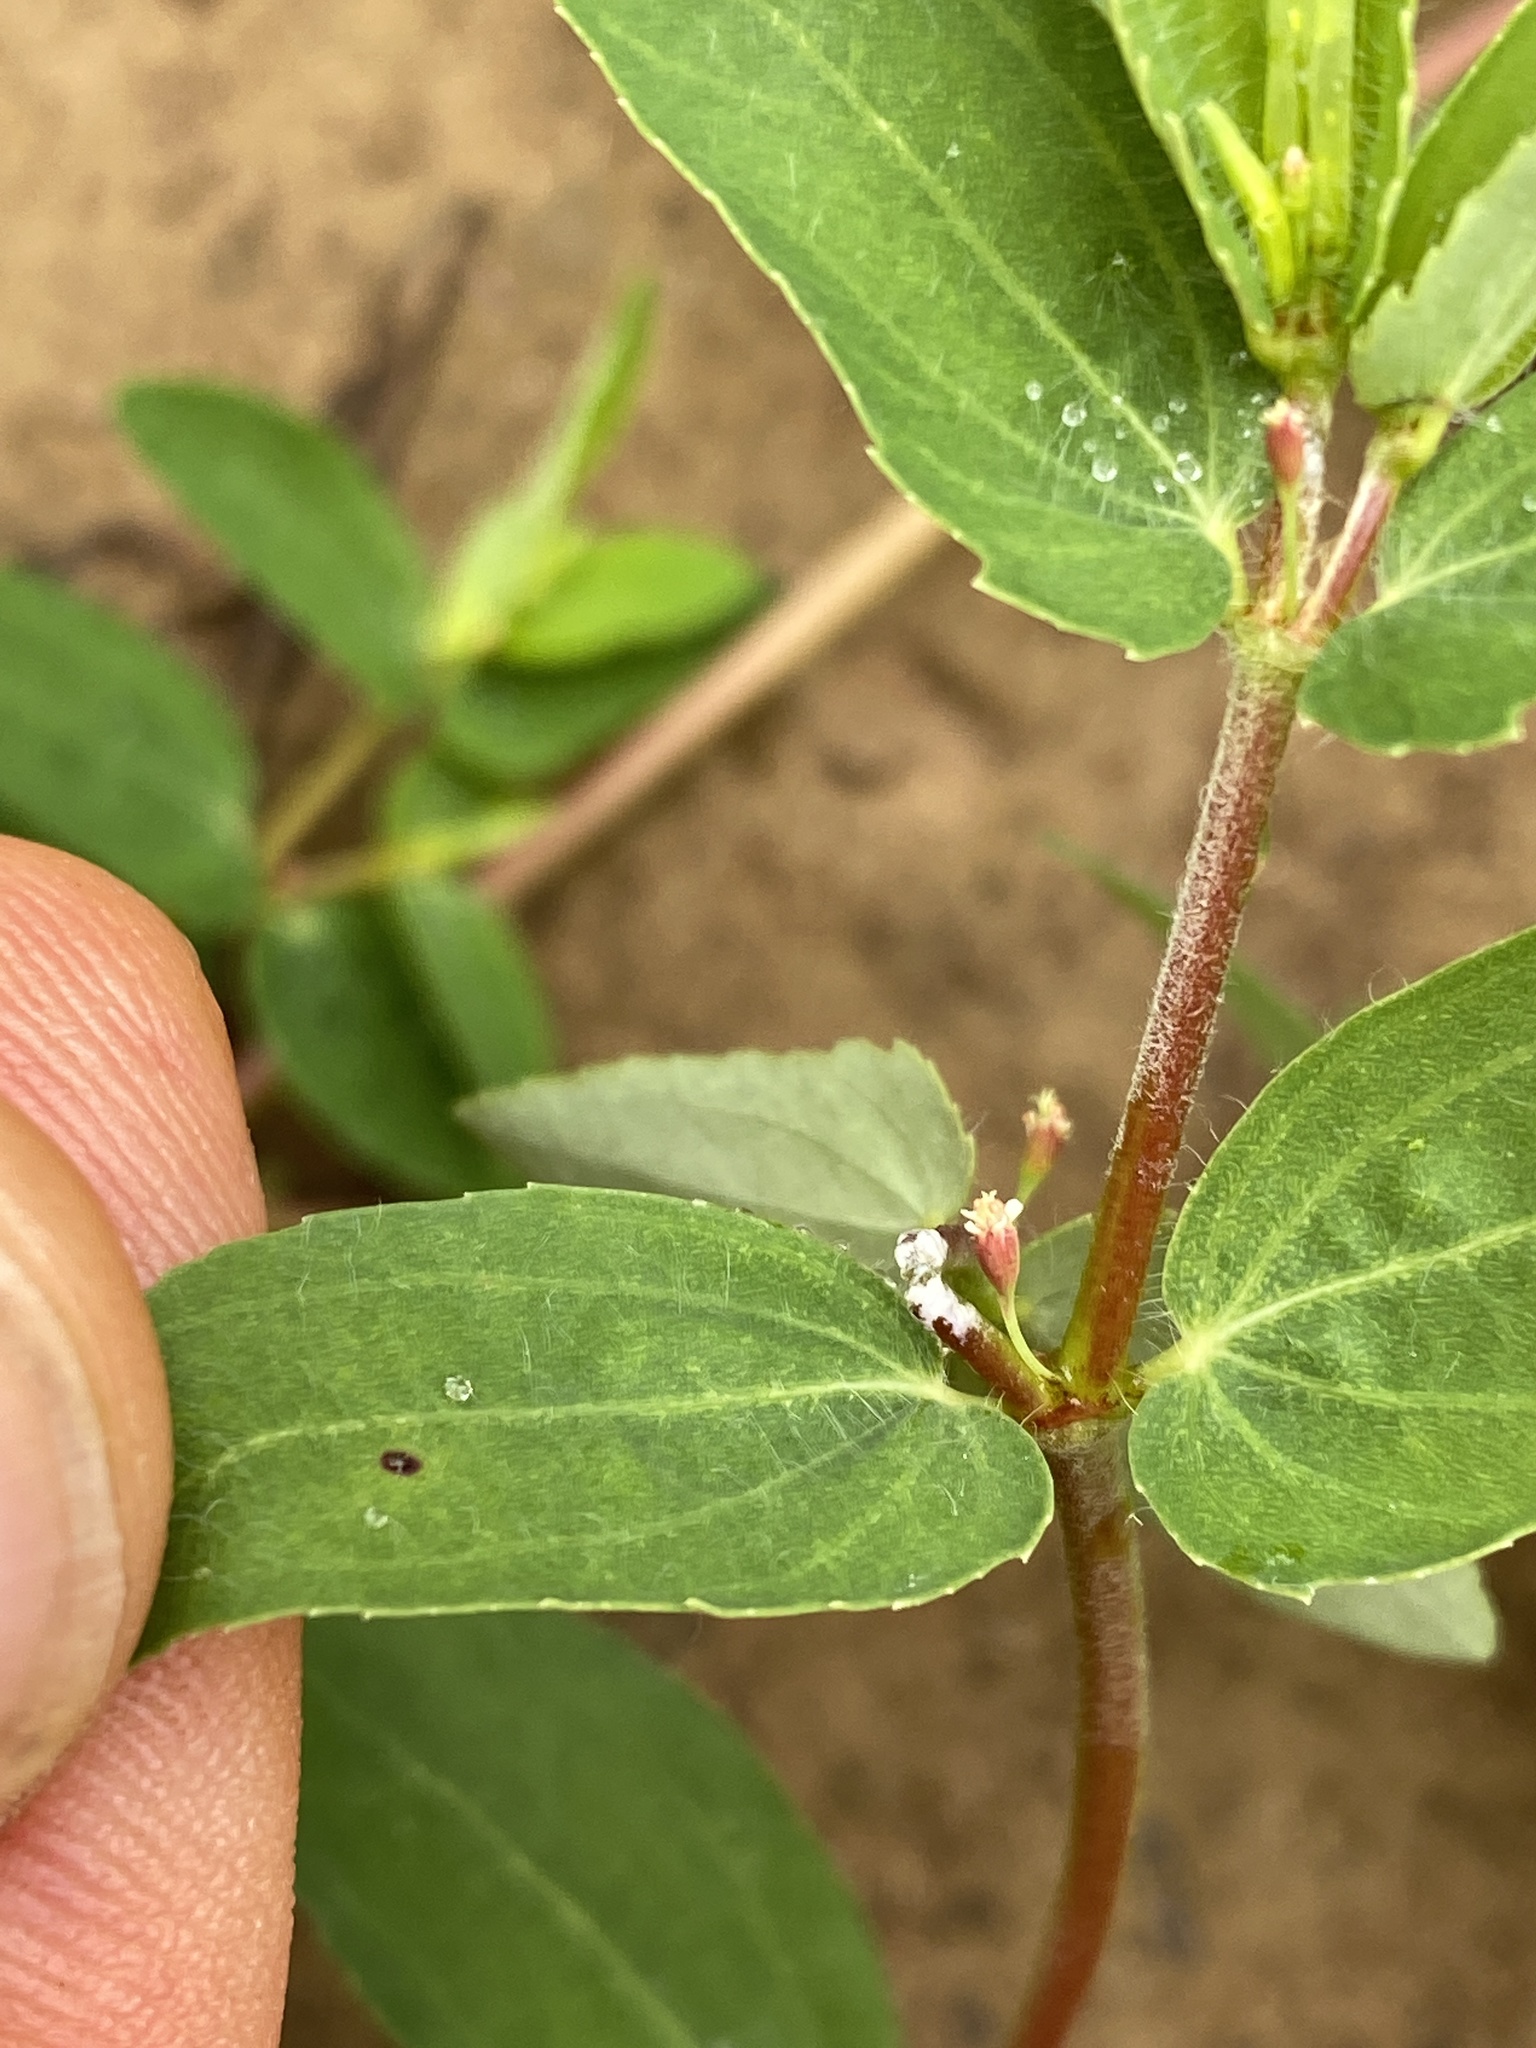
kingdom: Plantae
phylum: Tracheophyta
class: Magnoliopsida
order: Malpighiales
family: Euphorbiaceae
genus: Euphorbia
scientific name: Euphorbia nutans
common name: Eyebane
